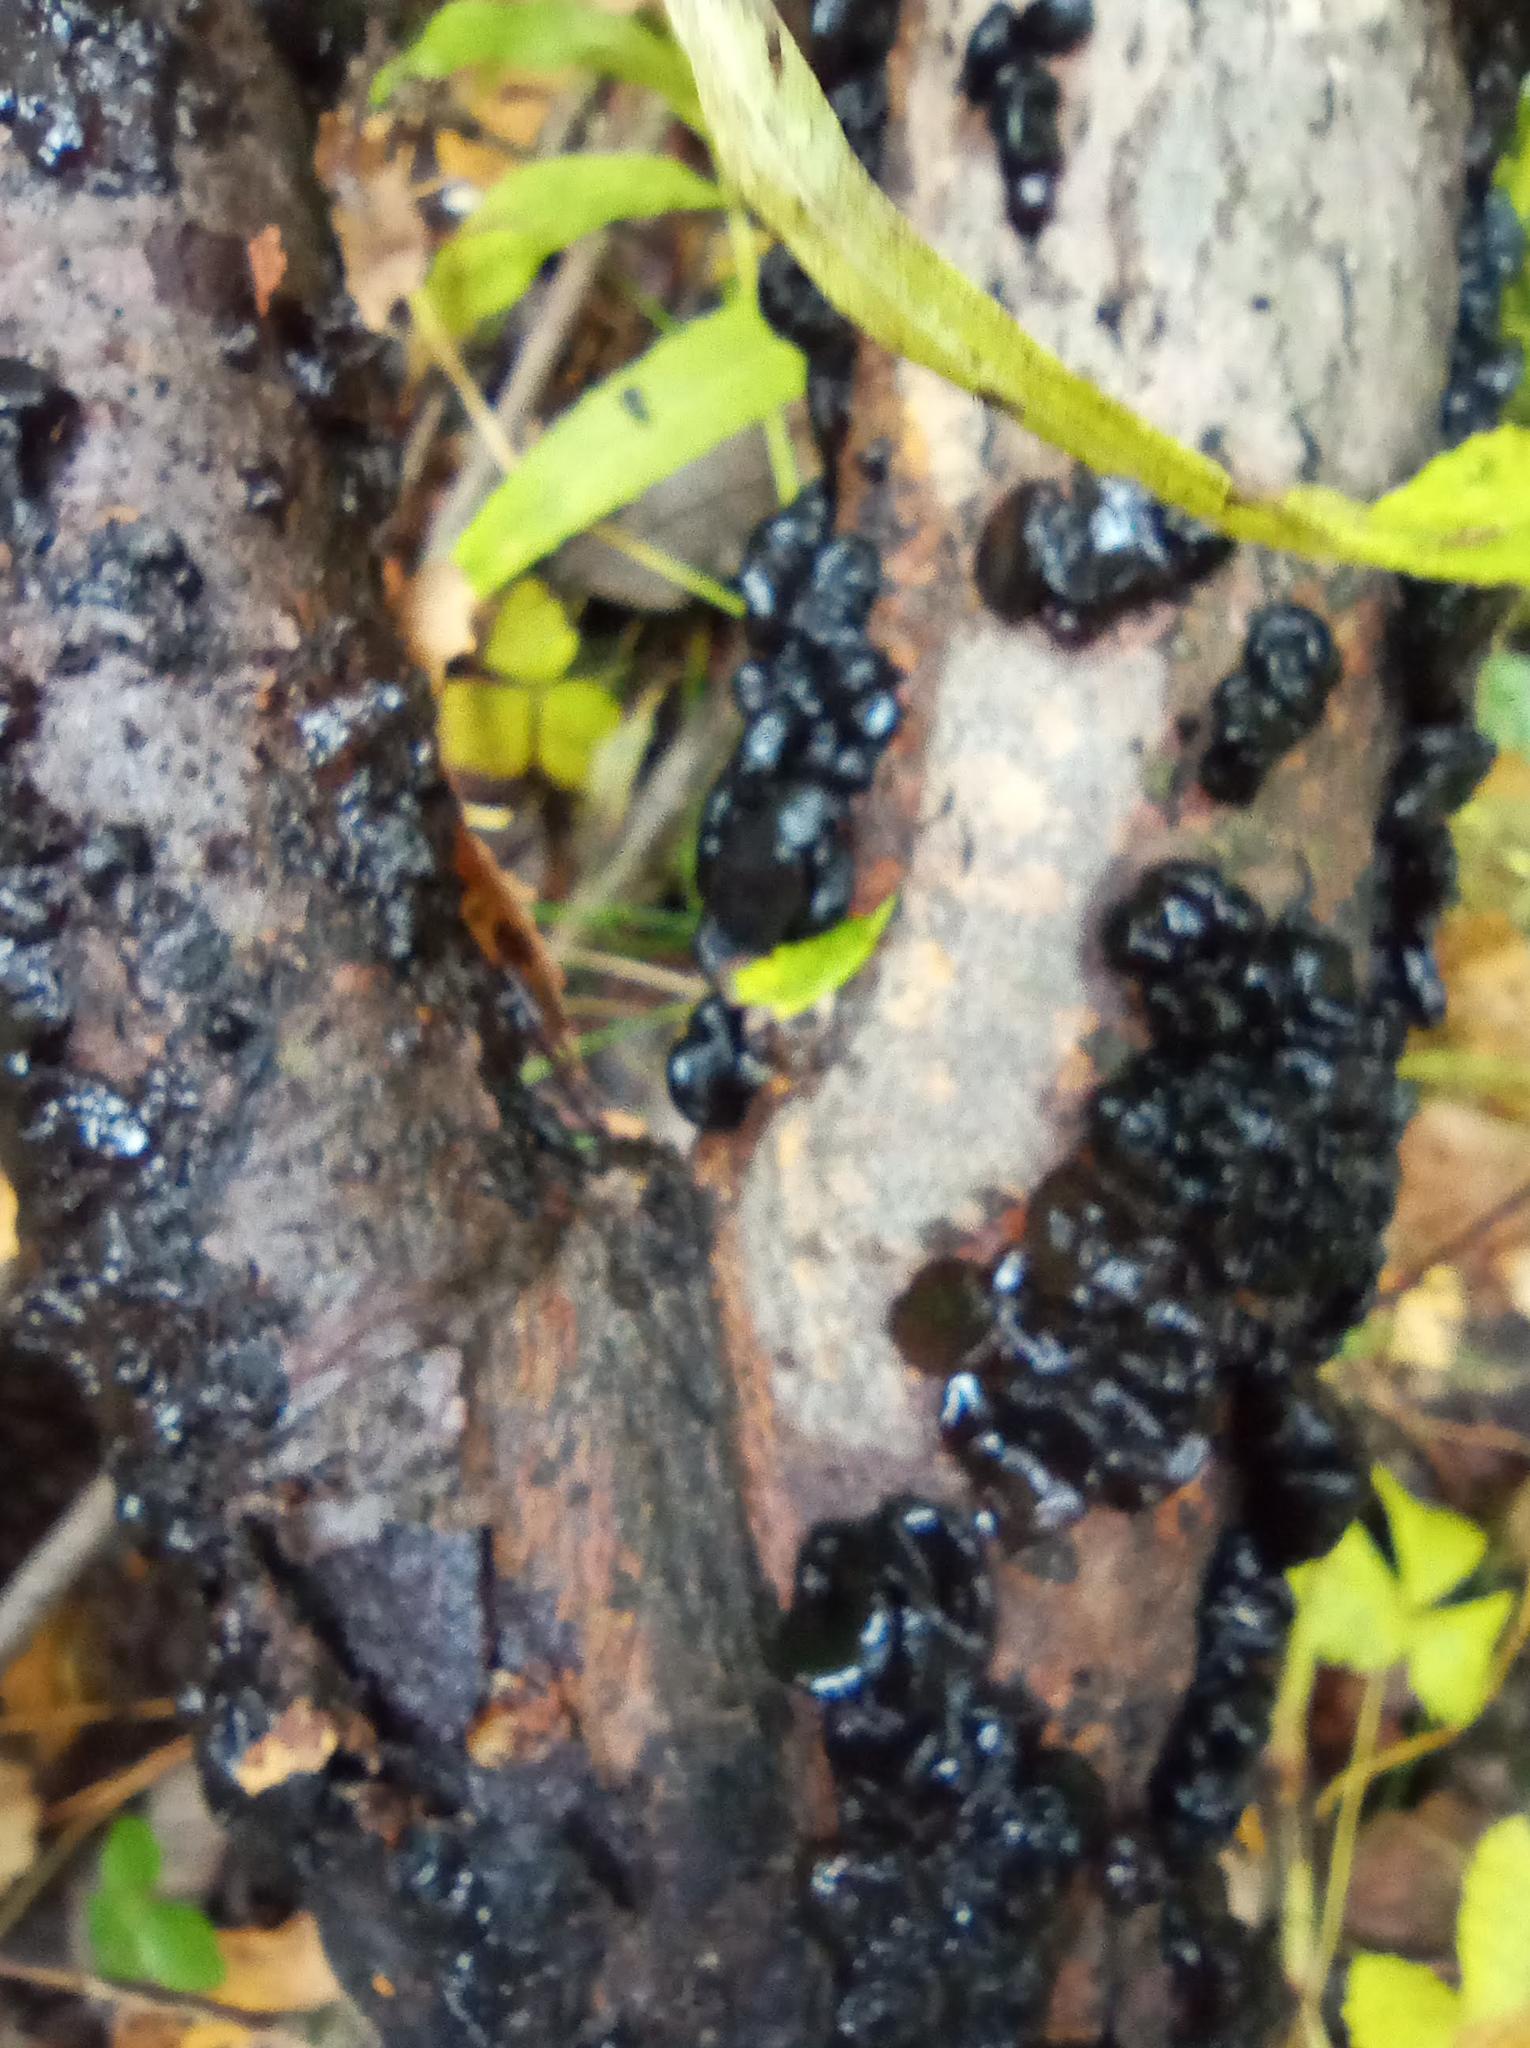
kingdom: Fungi
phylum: Basidiomycota
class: Agaricomycetes
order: Auriculariales
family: Auriculariaceae
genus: Exidia
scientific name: Exidia glandulosa
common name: Witches' butter
